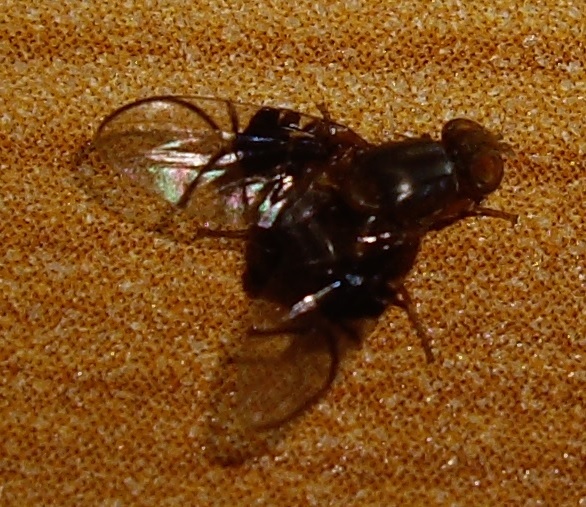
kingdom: Animalia
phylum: Arthropoda
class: Insecta
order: Diptera
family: Tephritidae
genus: Anomoia
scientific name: Anomoia purmunda
